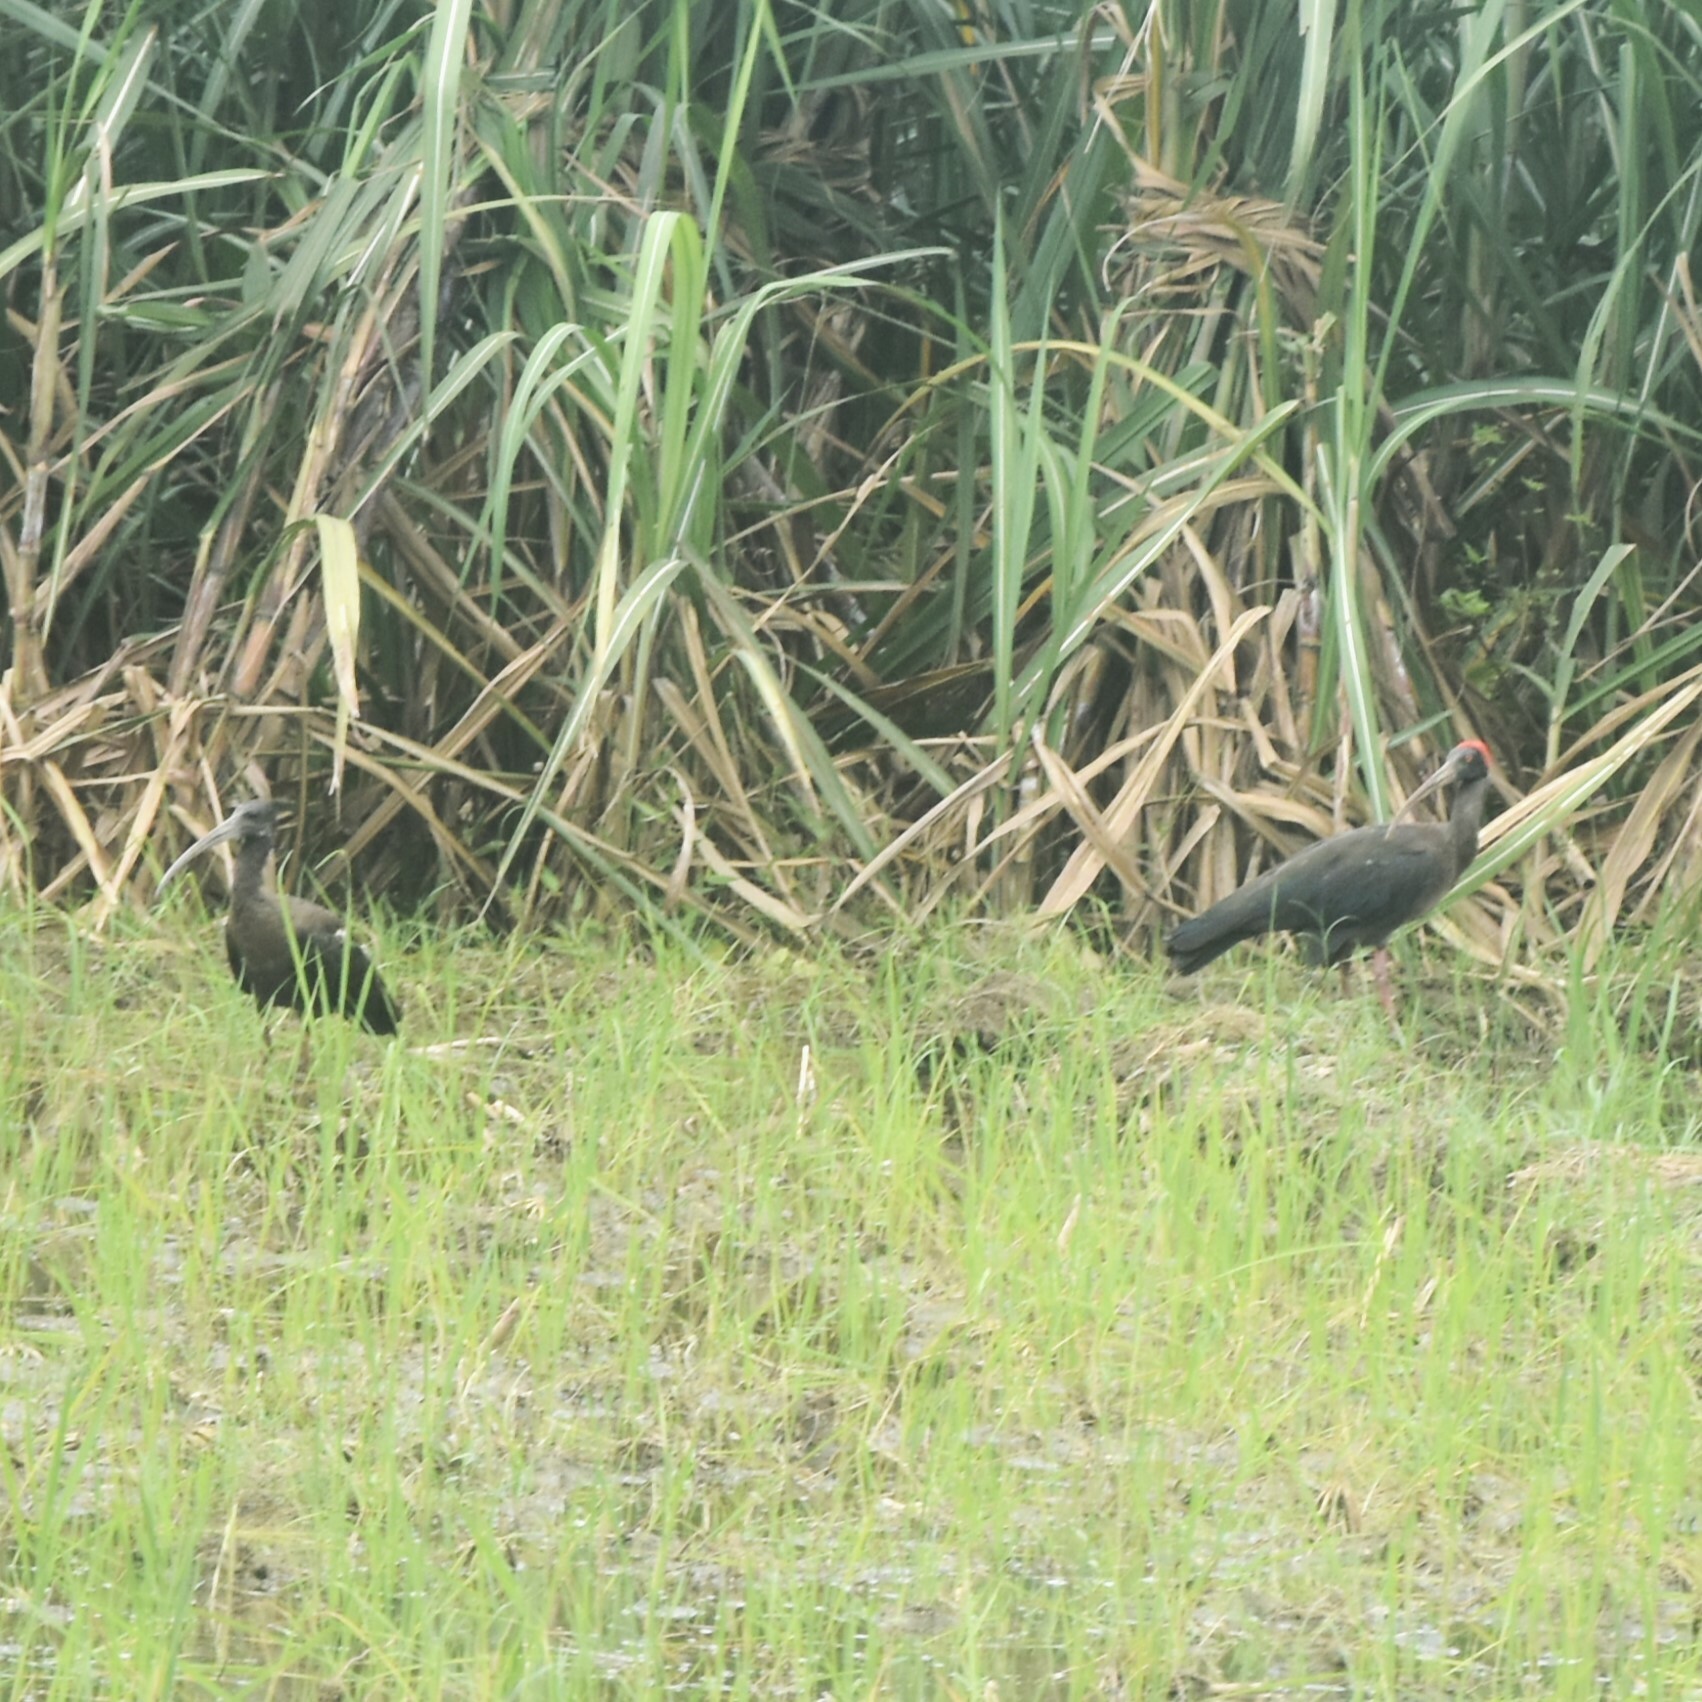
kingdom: Animalia
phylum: Chordata
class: Aves
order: Pelecaniformes
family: Threskiornithidae
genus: Pseudibis
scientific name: Pseudibis papillosa
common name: Red-naped ibis
